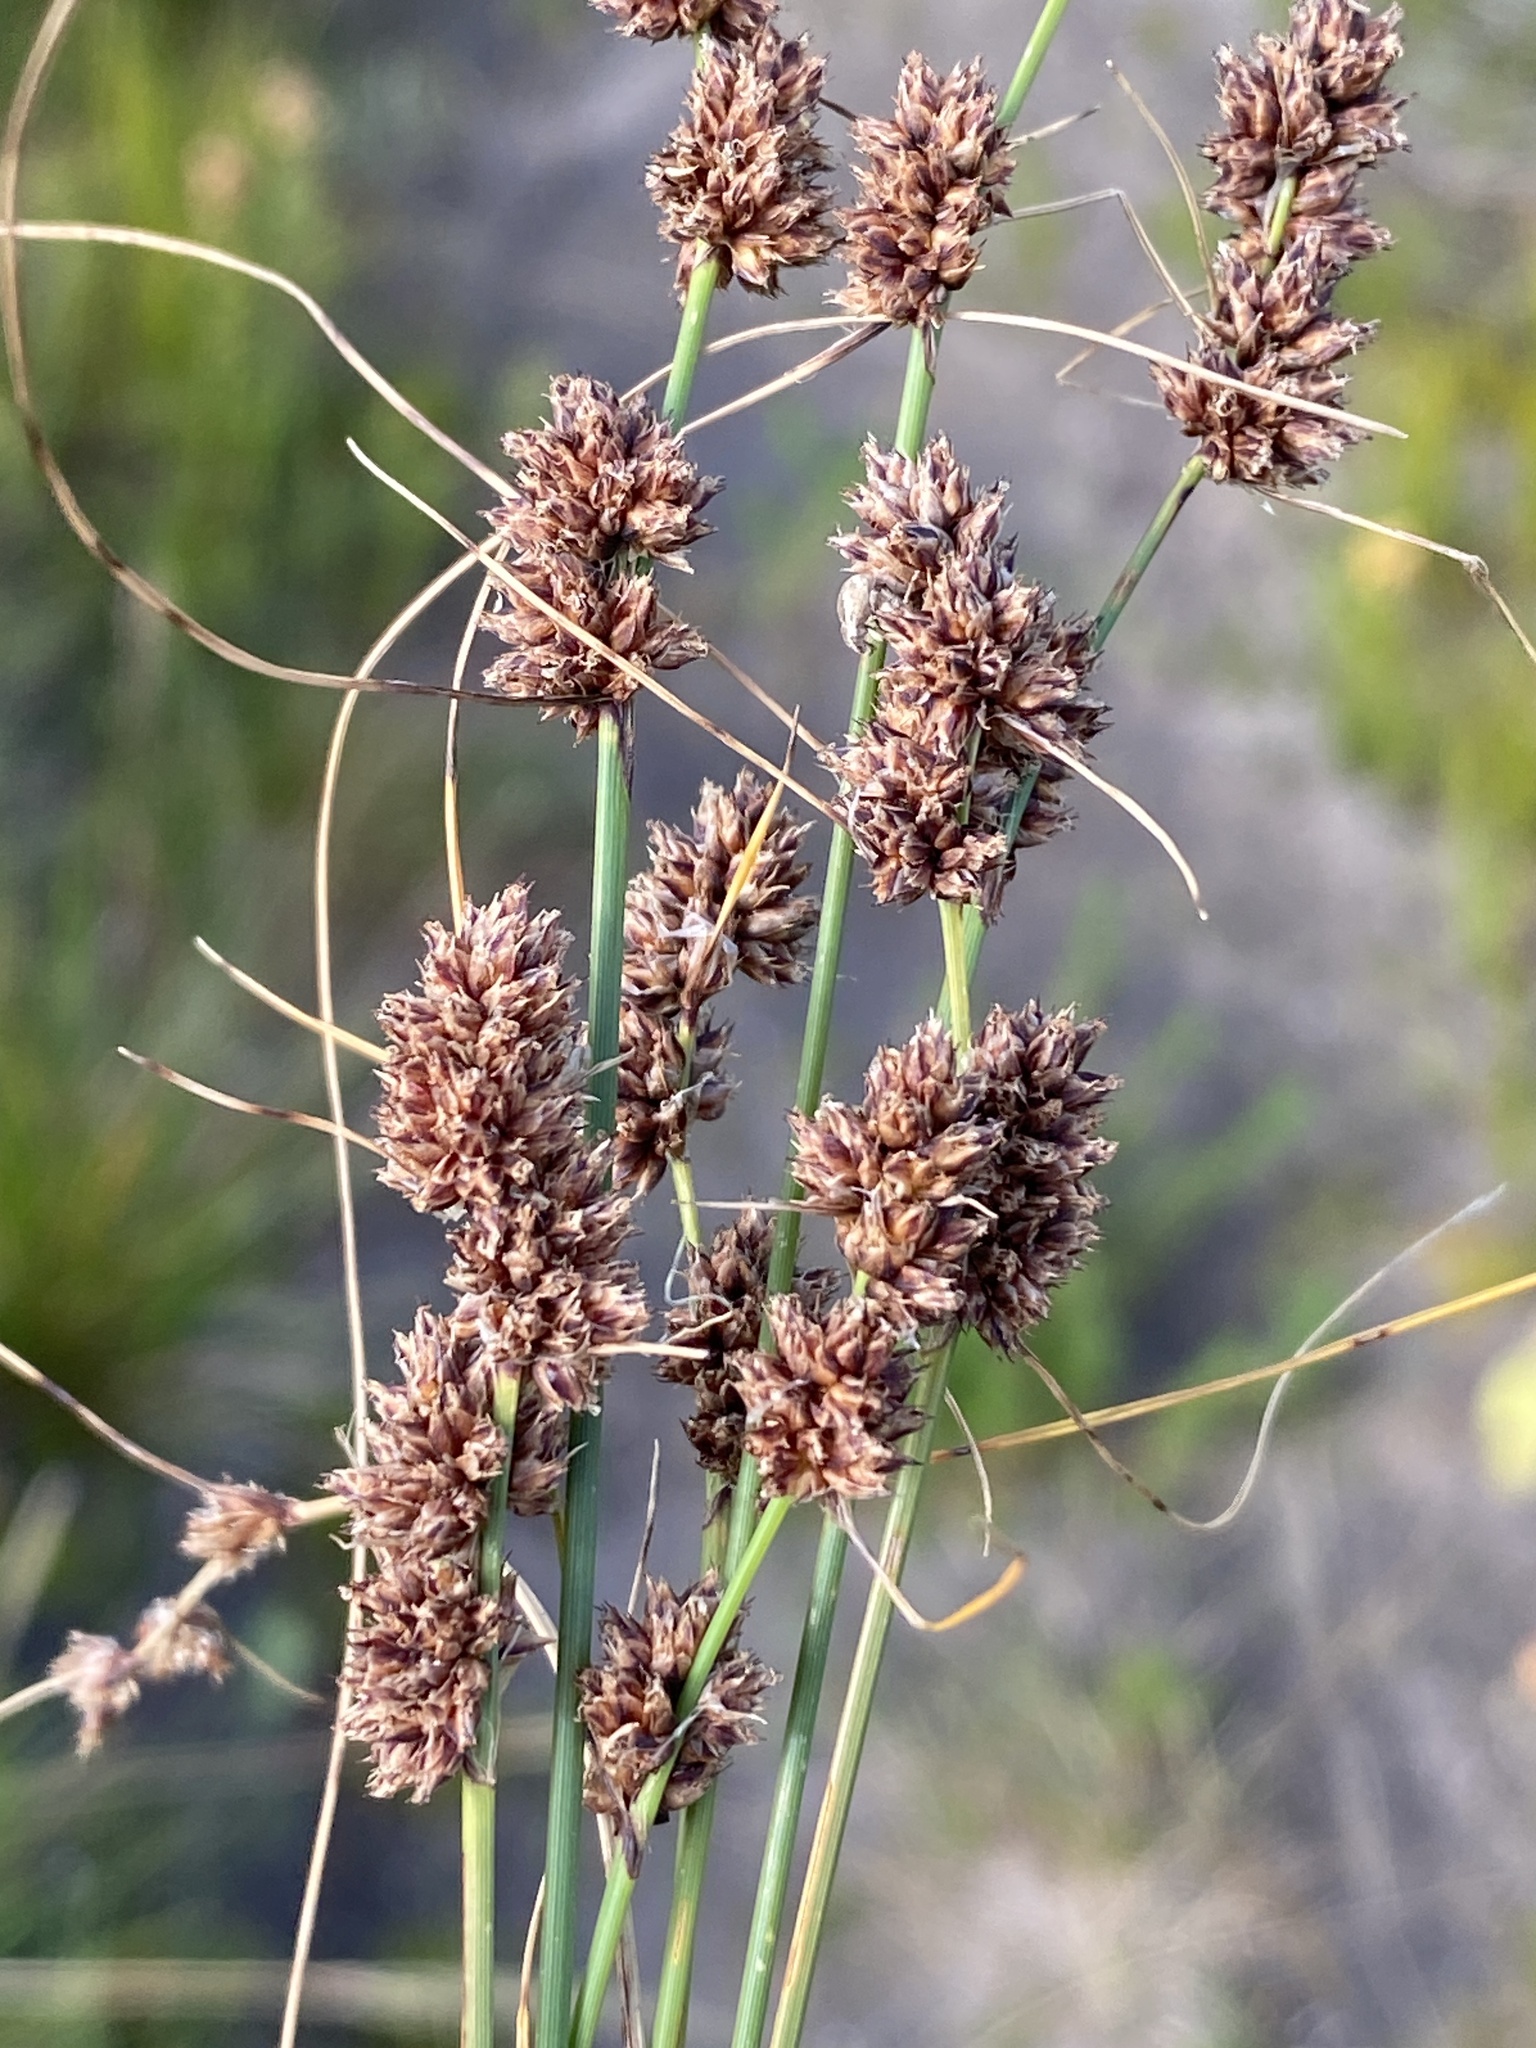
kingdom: Plantae
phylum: Tracheophyta
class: Liliopsida
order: Poales
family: Cyperaceae
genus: Ficinia
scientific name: Ficinia bulbosa
